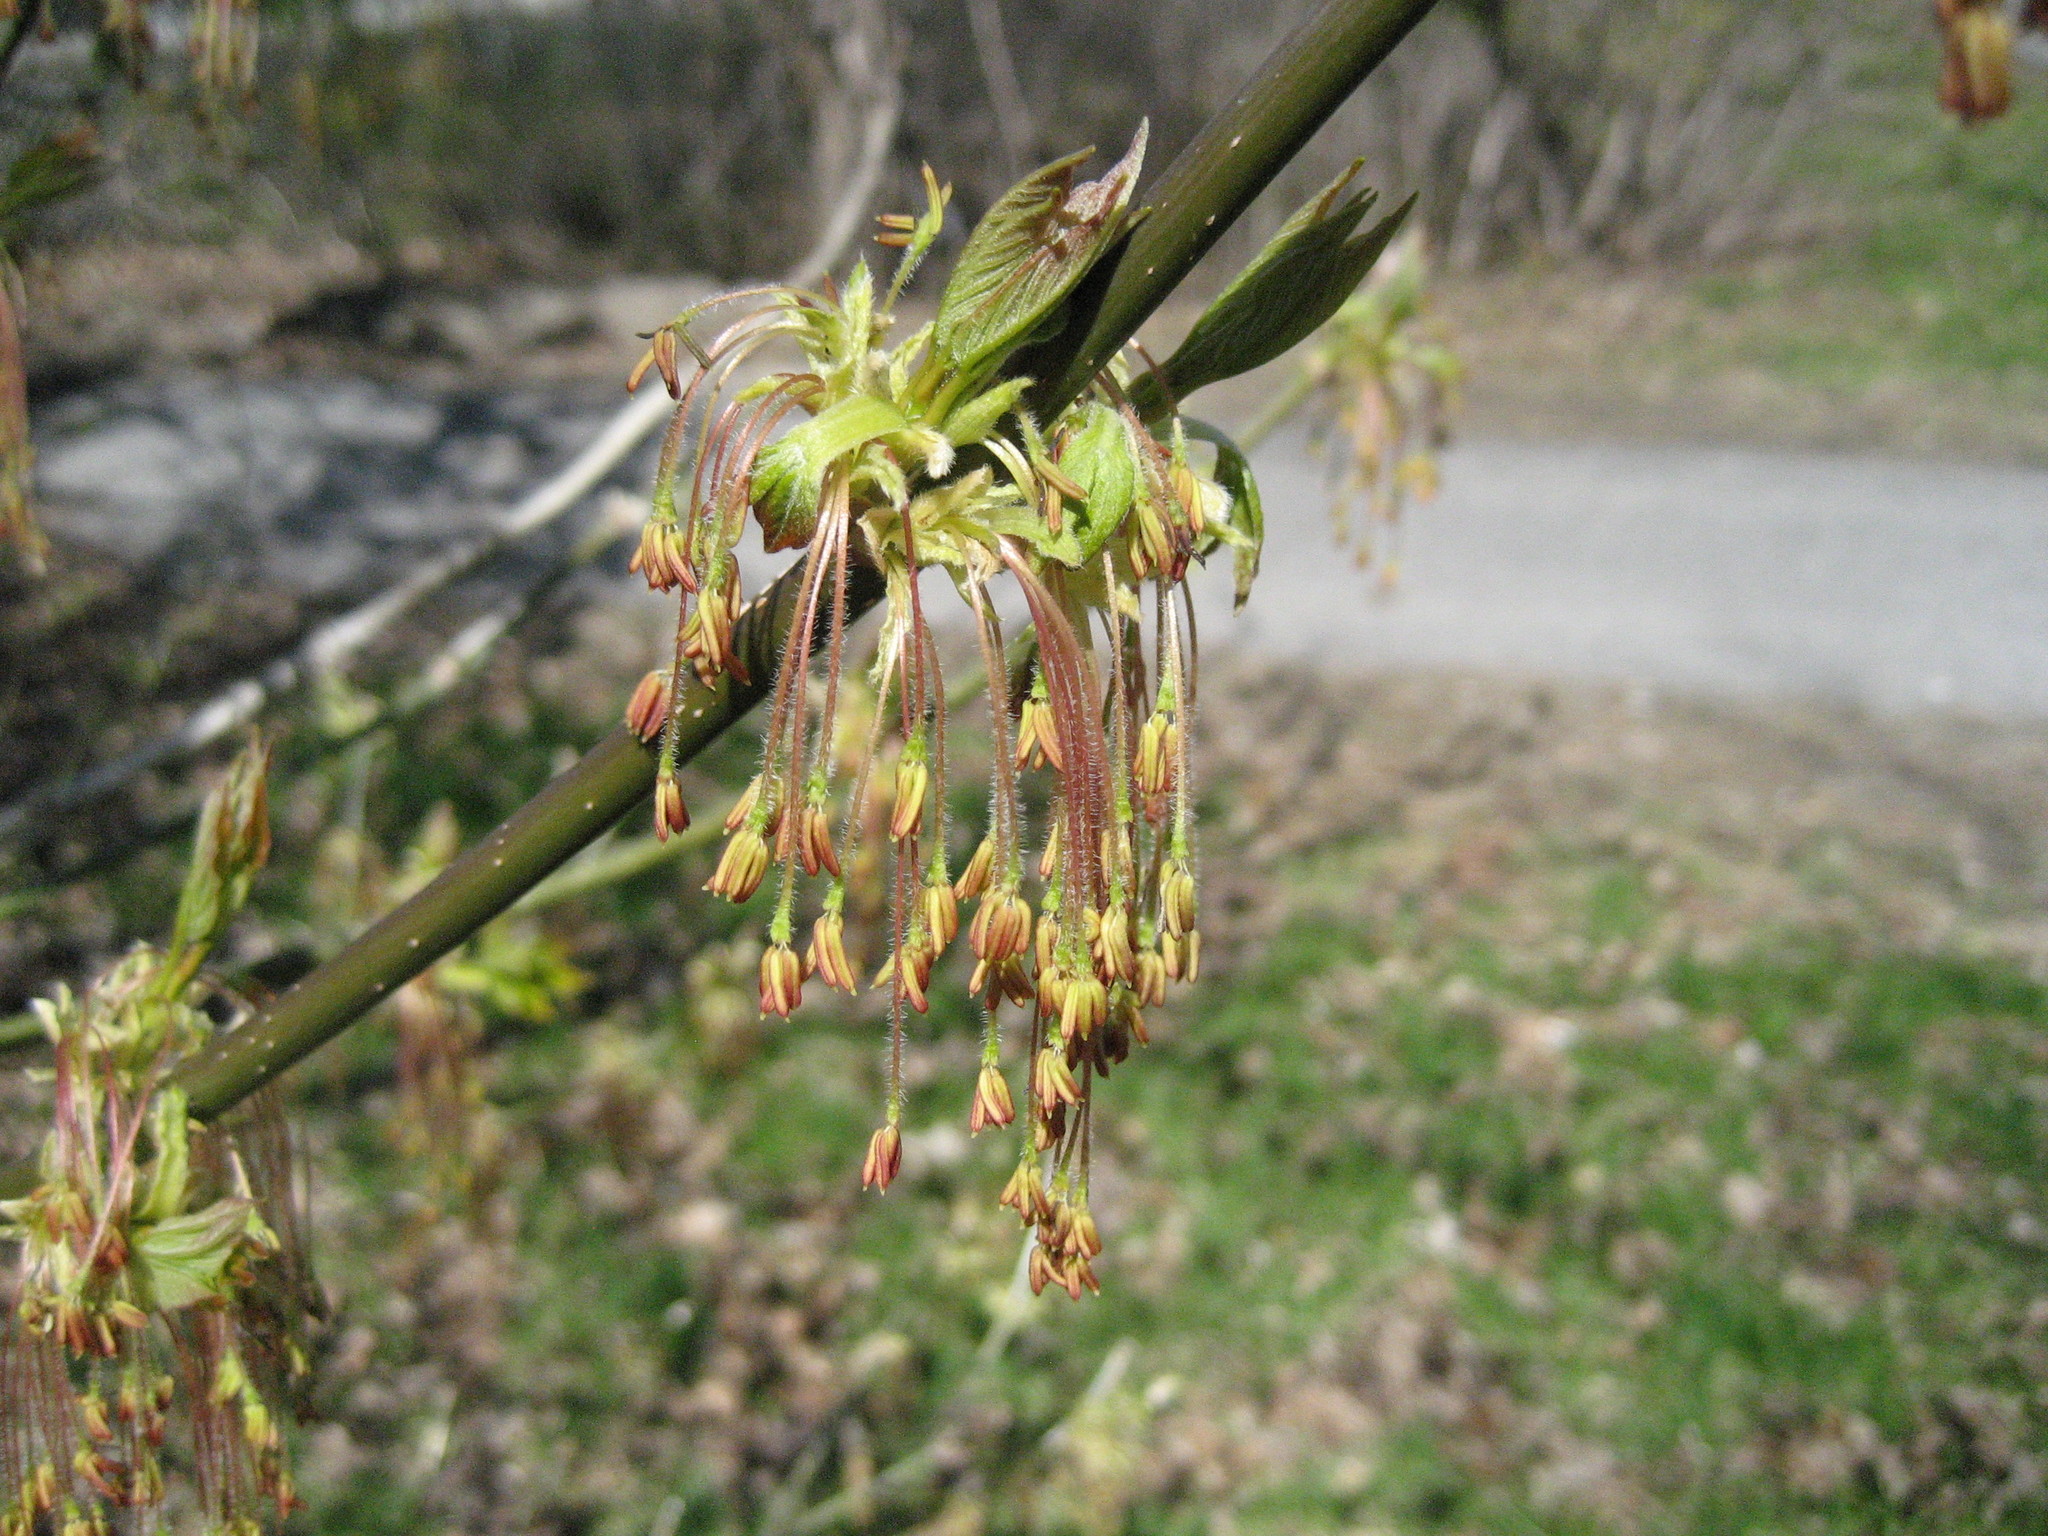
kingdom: Plantae
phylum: Tracheophyta
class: Magnoliopsida
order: Sapindales
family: Sapindaceae
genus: Acer
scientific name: Acer negundo
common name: Ashleaf maple
